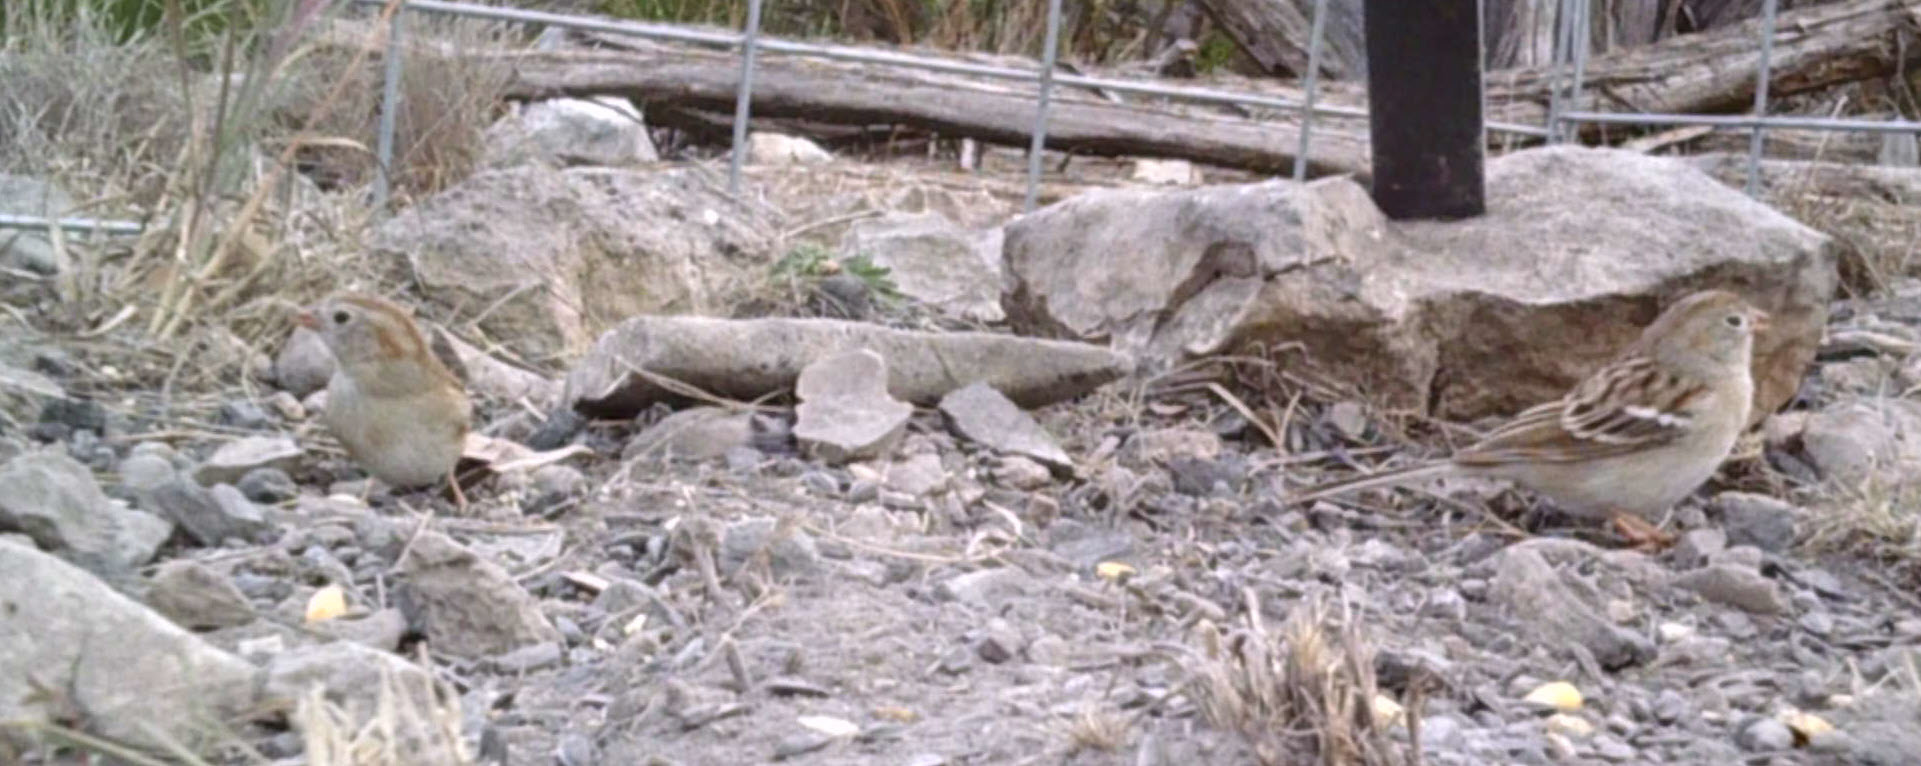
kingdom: Animalia
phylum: Chordata
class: Aves
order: Passeriformes
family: Passerellidae
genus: Spizella
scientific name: Spizella pusilla
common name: Field sparrow
